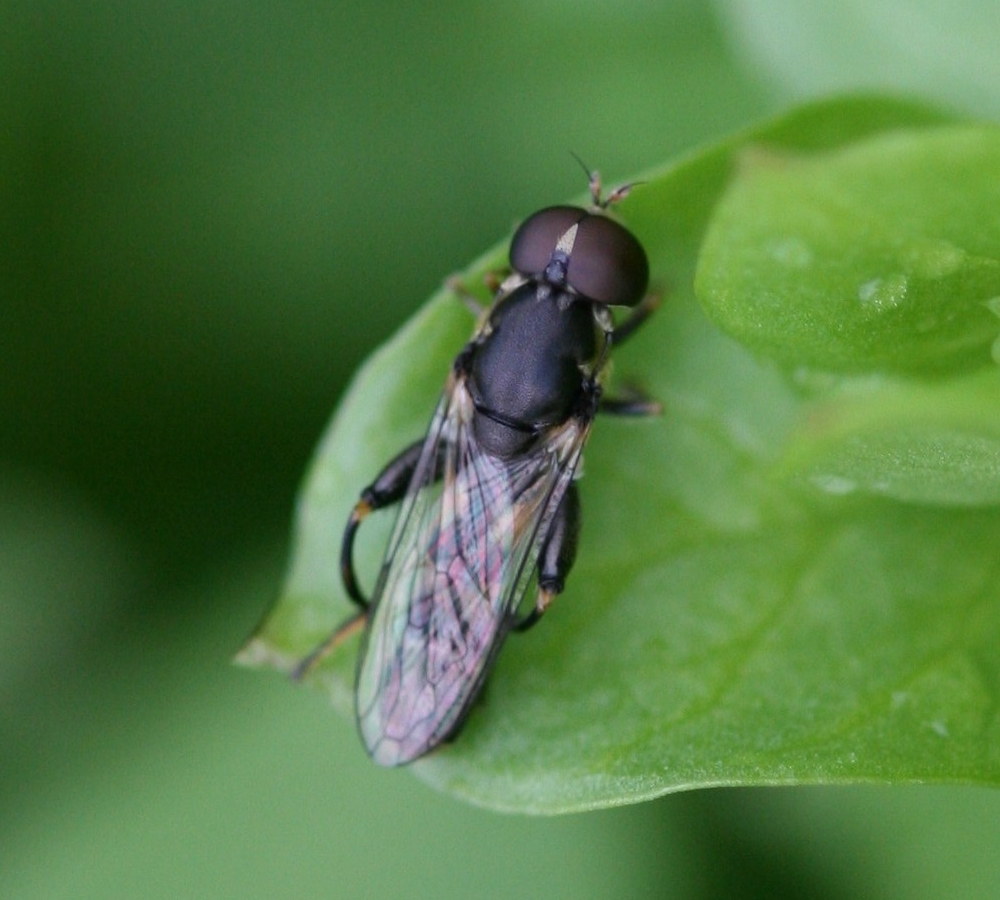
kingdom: Animalia
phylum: Arthropoda
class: Insecta
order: Diptera
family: Syrphidae
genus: Syritta
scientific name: Syritta pipiens
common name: Hover fly
